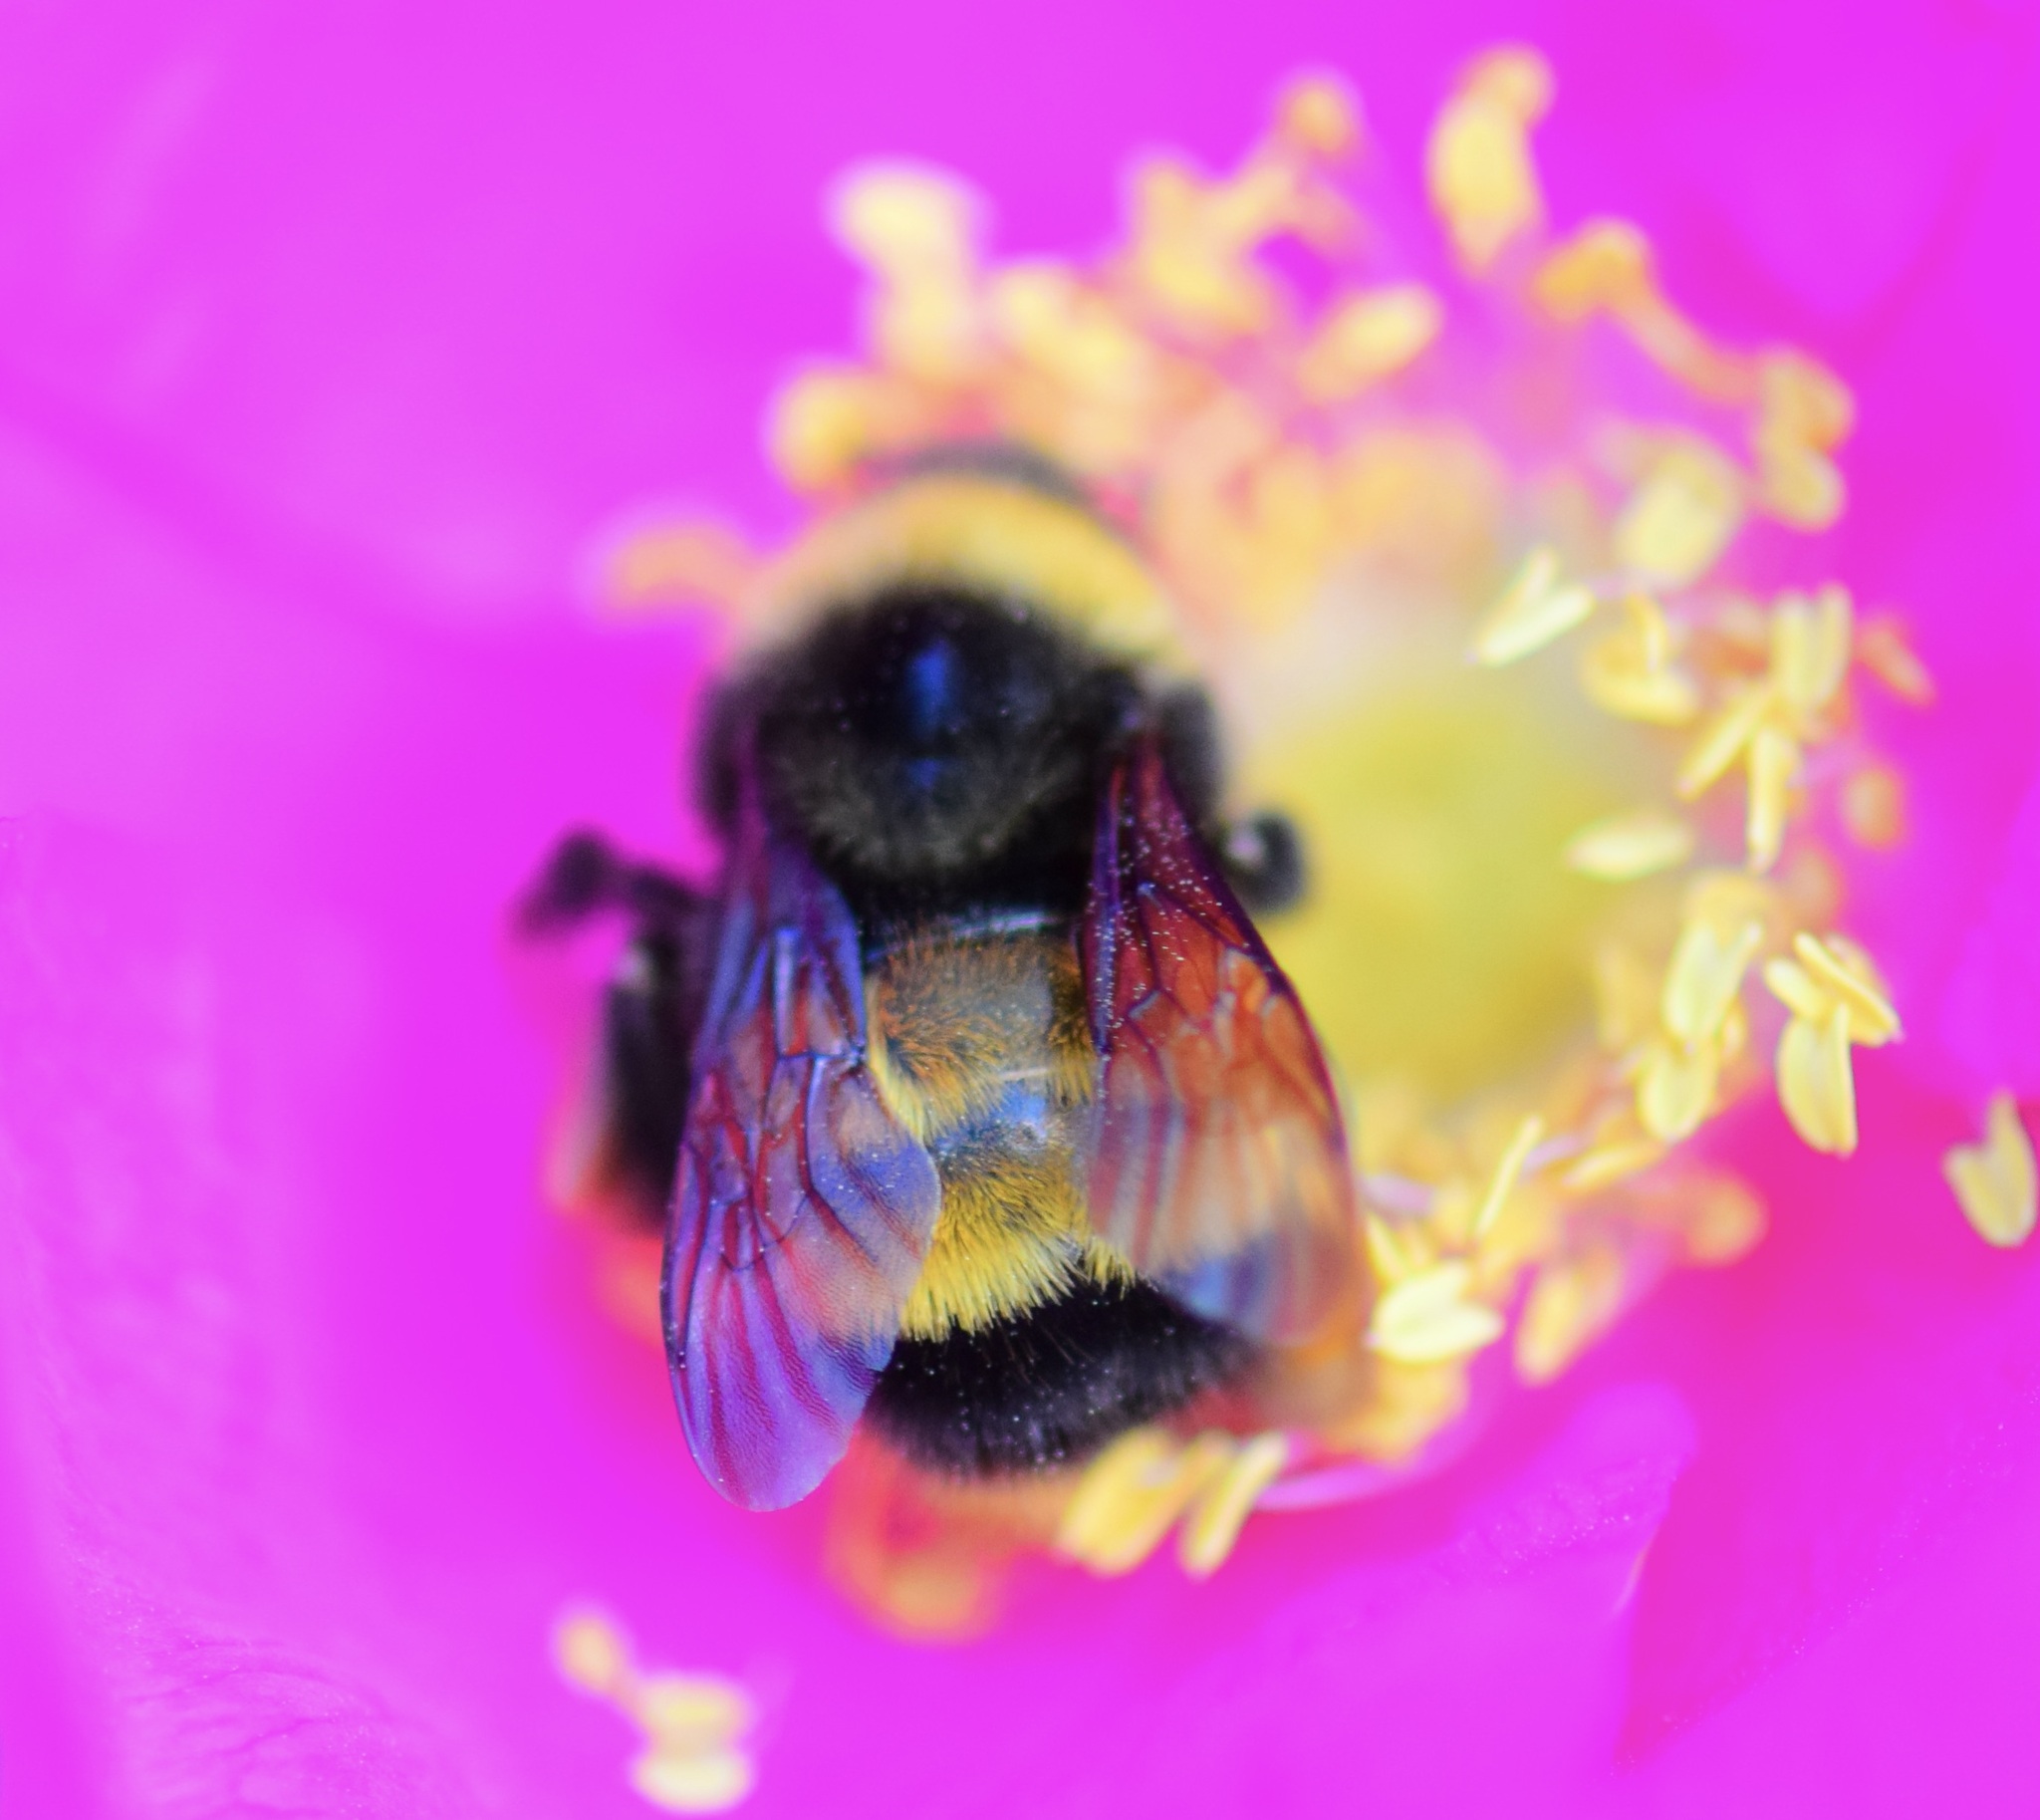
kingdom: Animalia
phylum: Arthropoda
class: Insecta
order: Hymenoptera
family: Apidae
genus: Bombus
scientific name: Bombus terricola
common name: Yellow-banded bumble bee
